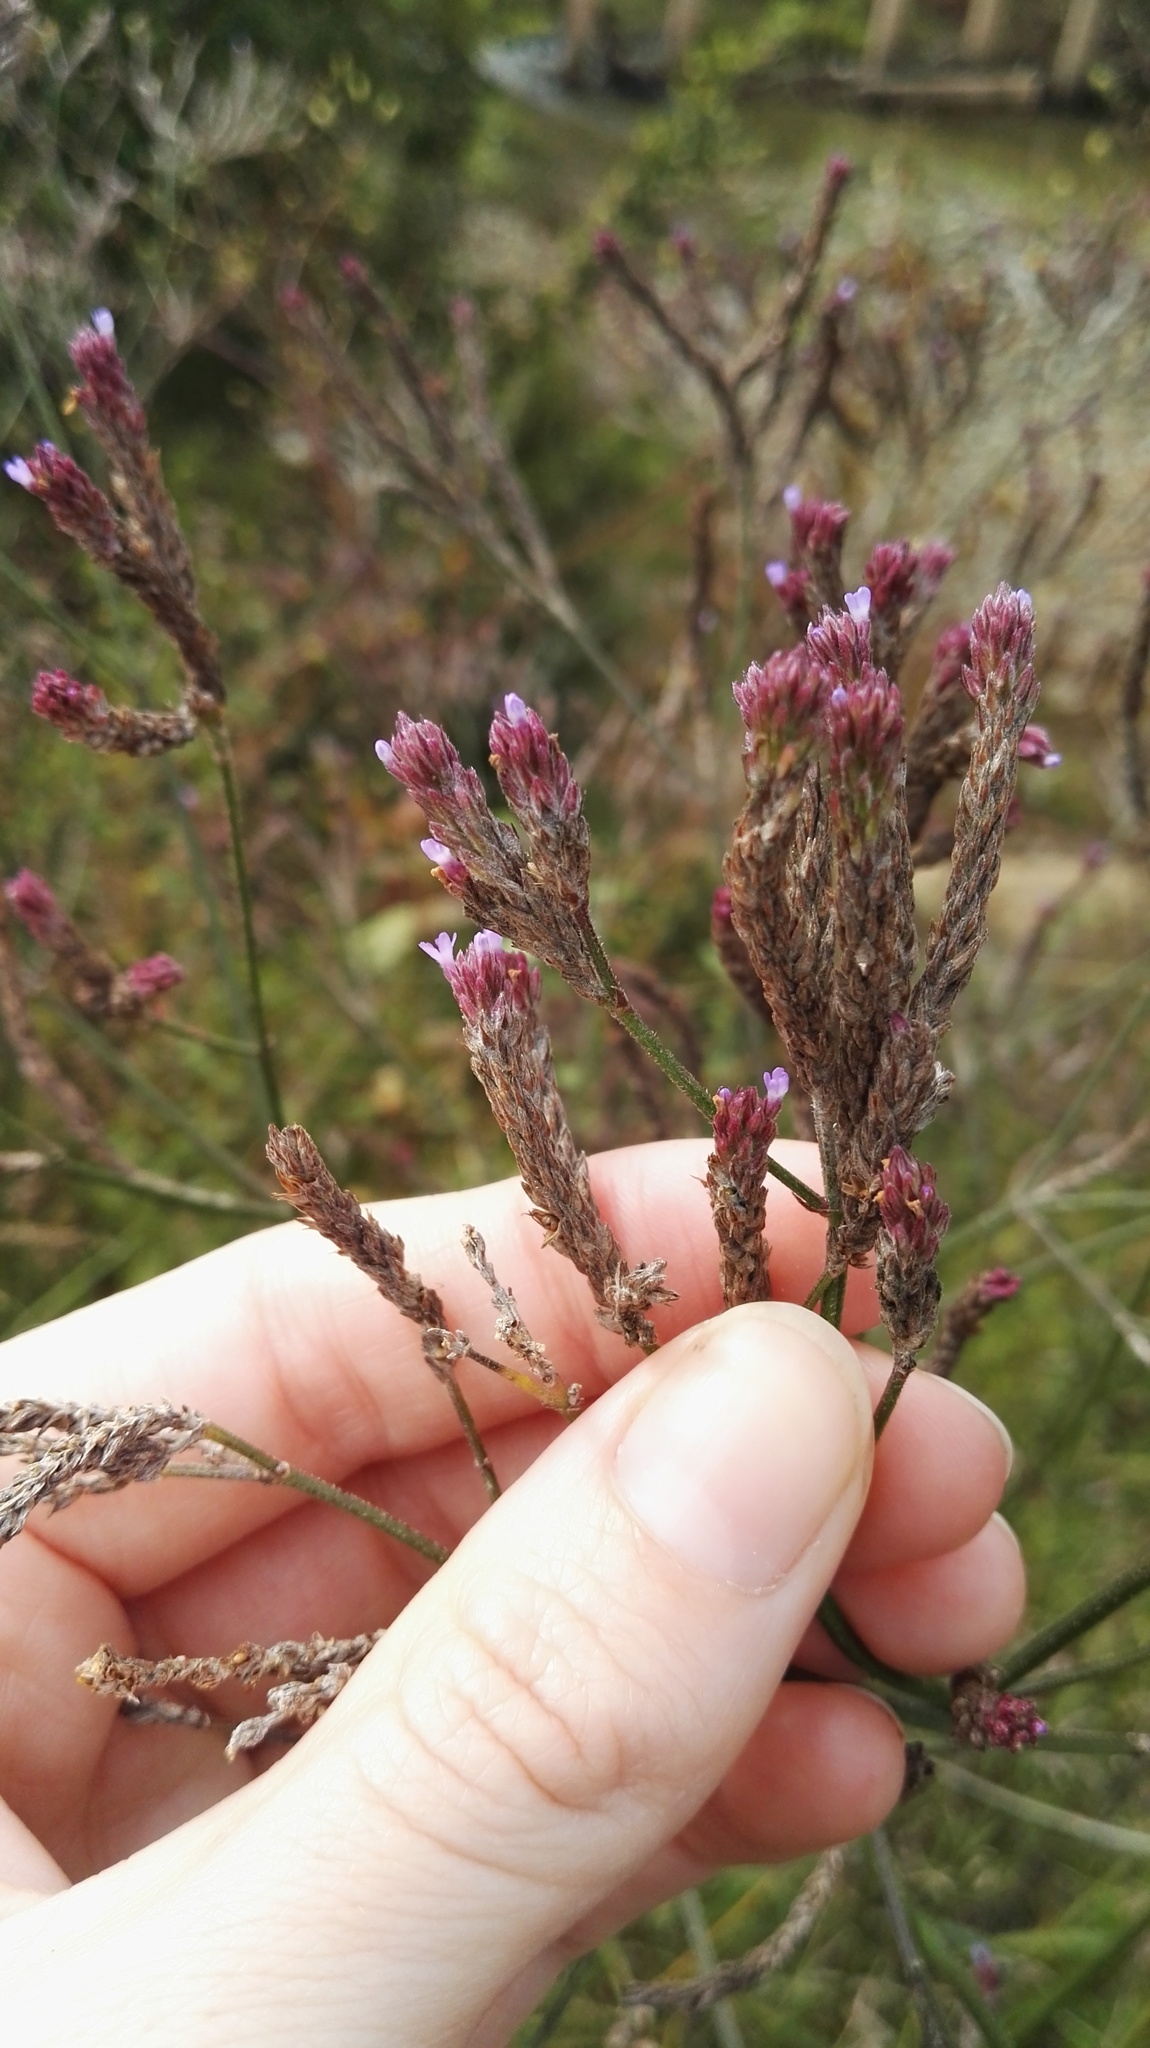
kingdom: Plantae
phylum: Tracheophyta
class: Magnoliopsida
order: Lamiales
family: Verbenaceae
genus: Verbena
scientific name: Verbena brasiliensis
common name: Brazilian vervain
